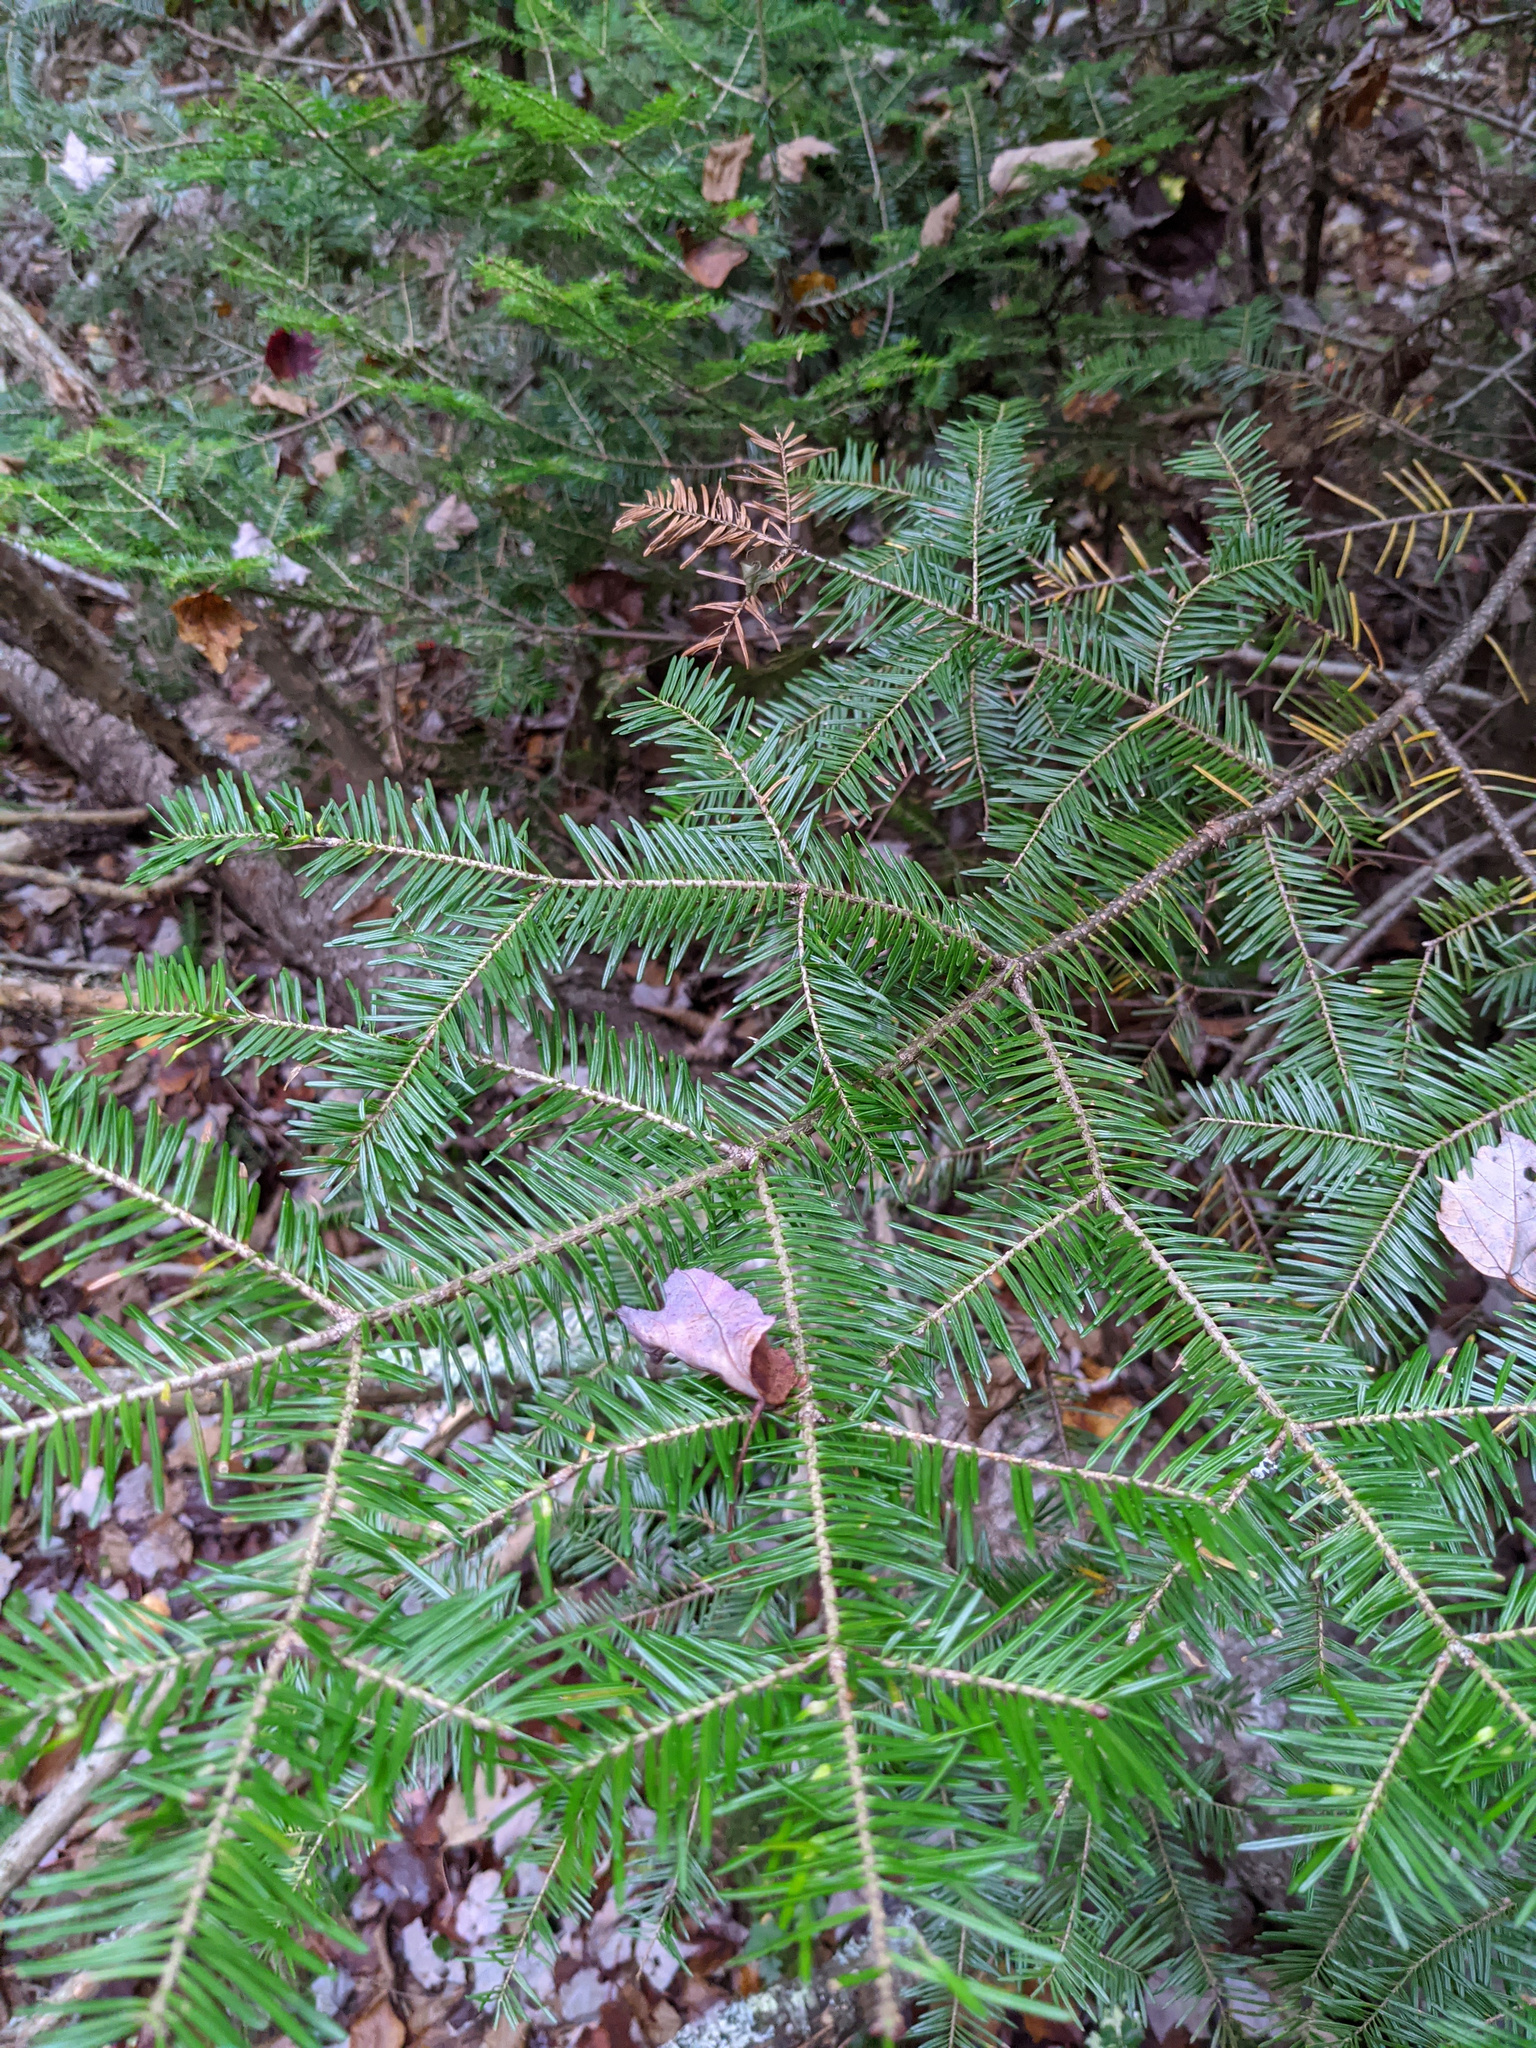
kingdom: Plantae
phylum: Tracheophyta
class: Pinopsida
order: Pinales
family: Pinaceae
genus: Abies
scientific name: Abies balsamea
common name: Balsam fir
